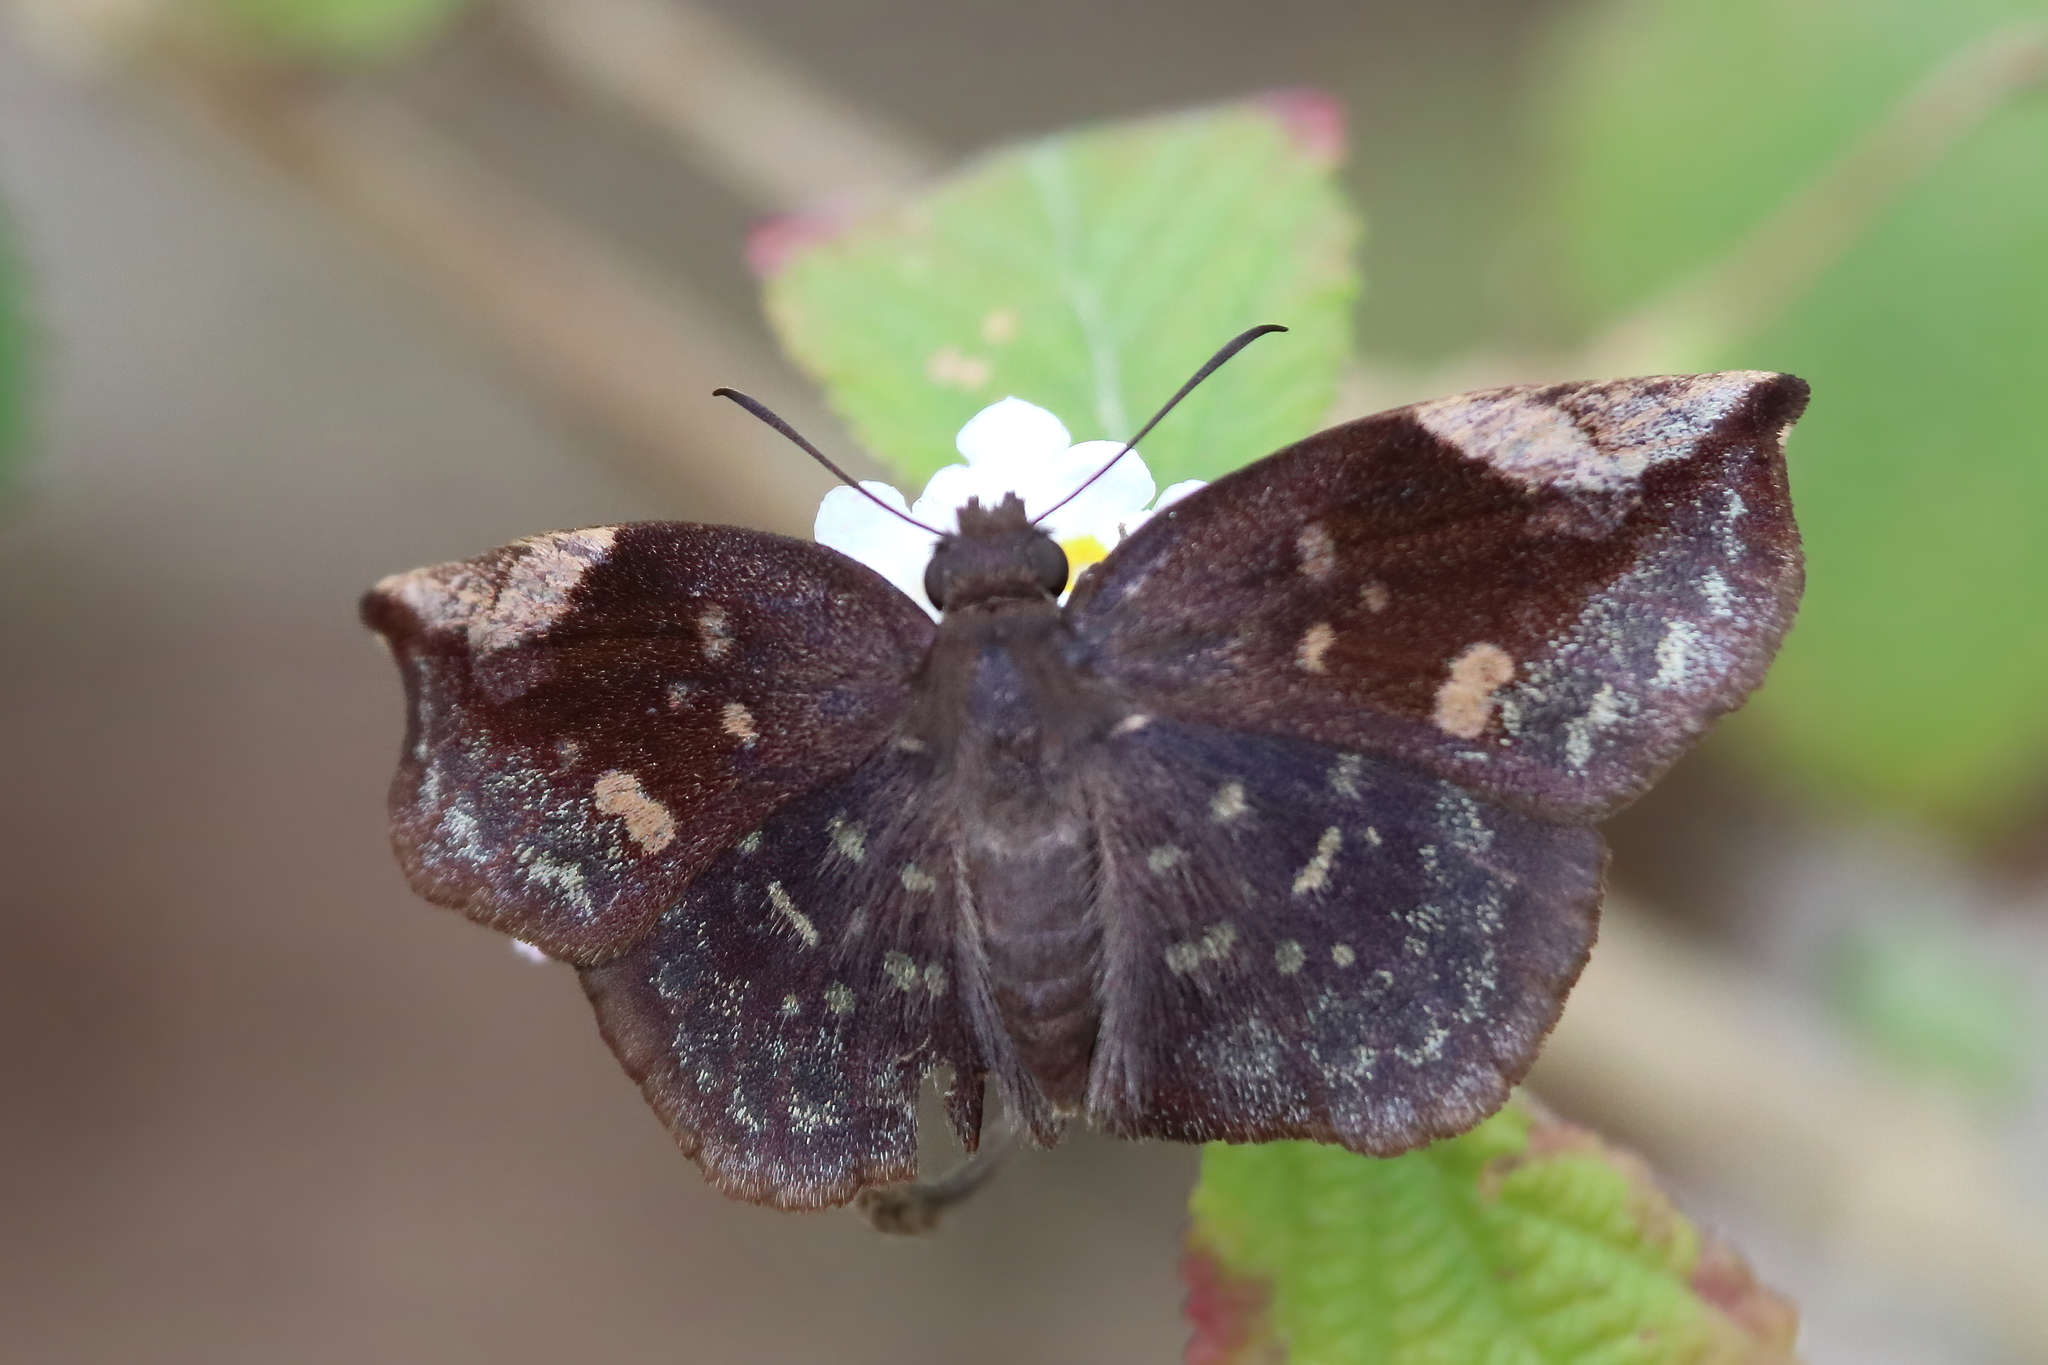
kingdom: Animalia
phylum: Arthropoda
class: Insecta
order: Lepidoptera
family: Hesperiidae
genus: Achlyodes
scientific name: Achlyodes thraso
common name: Sickle-winged skipper
